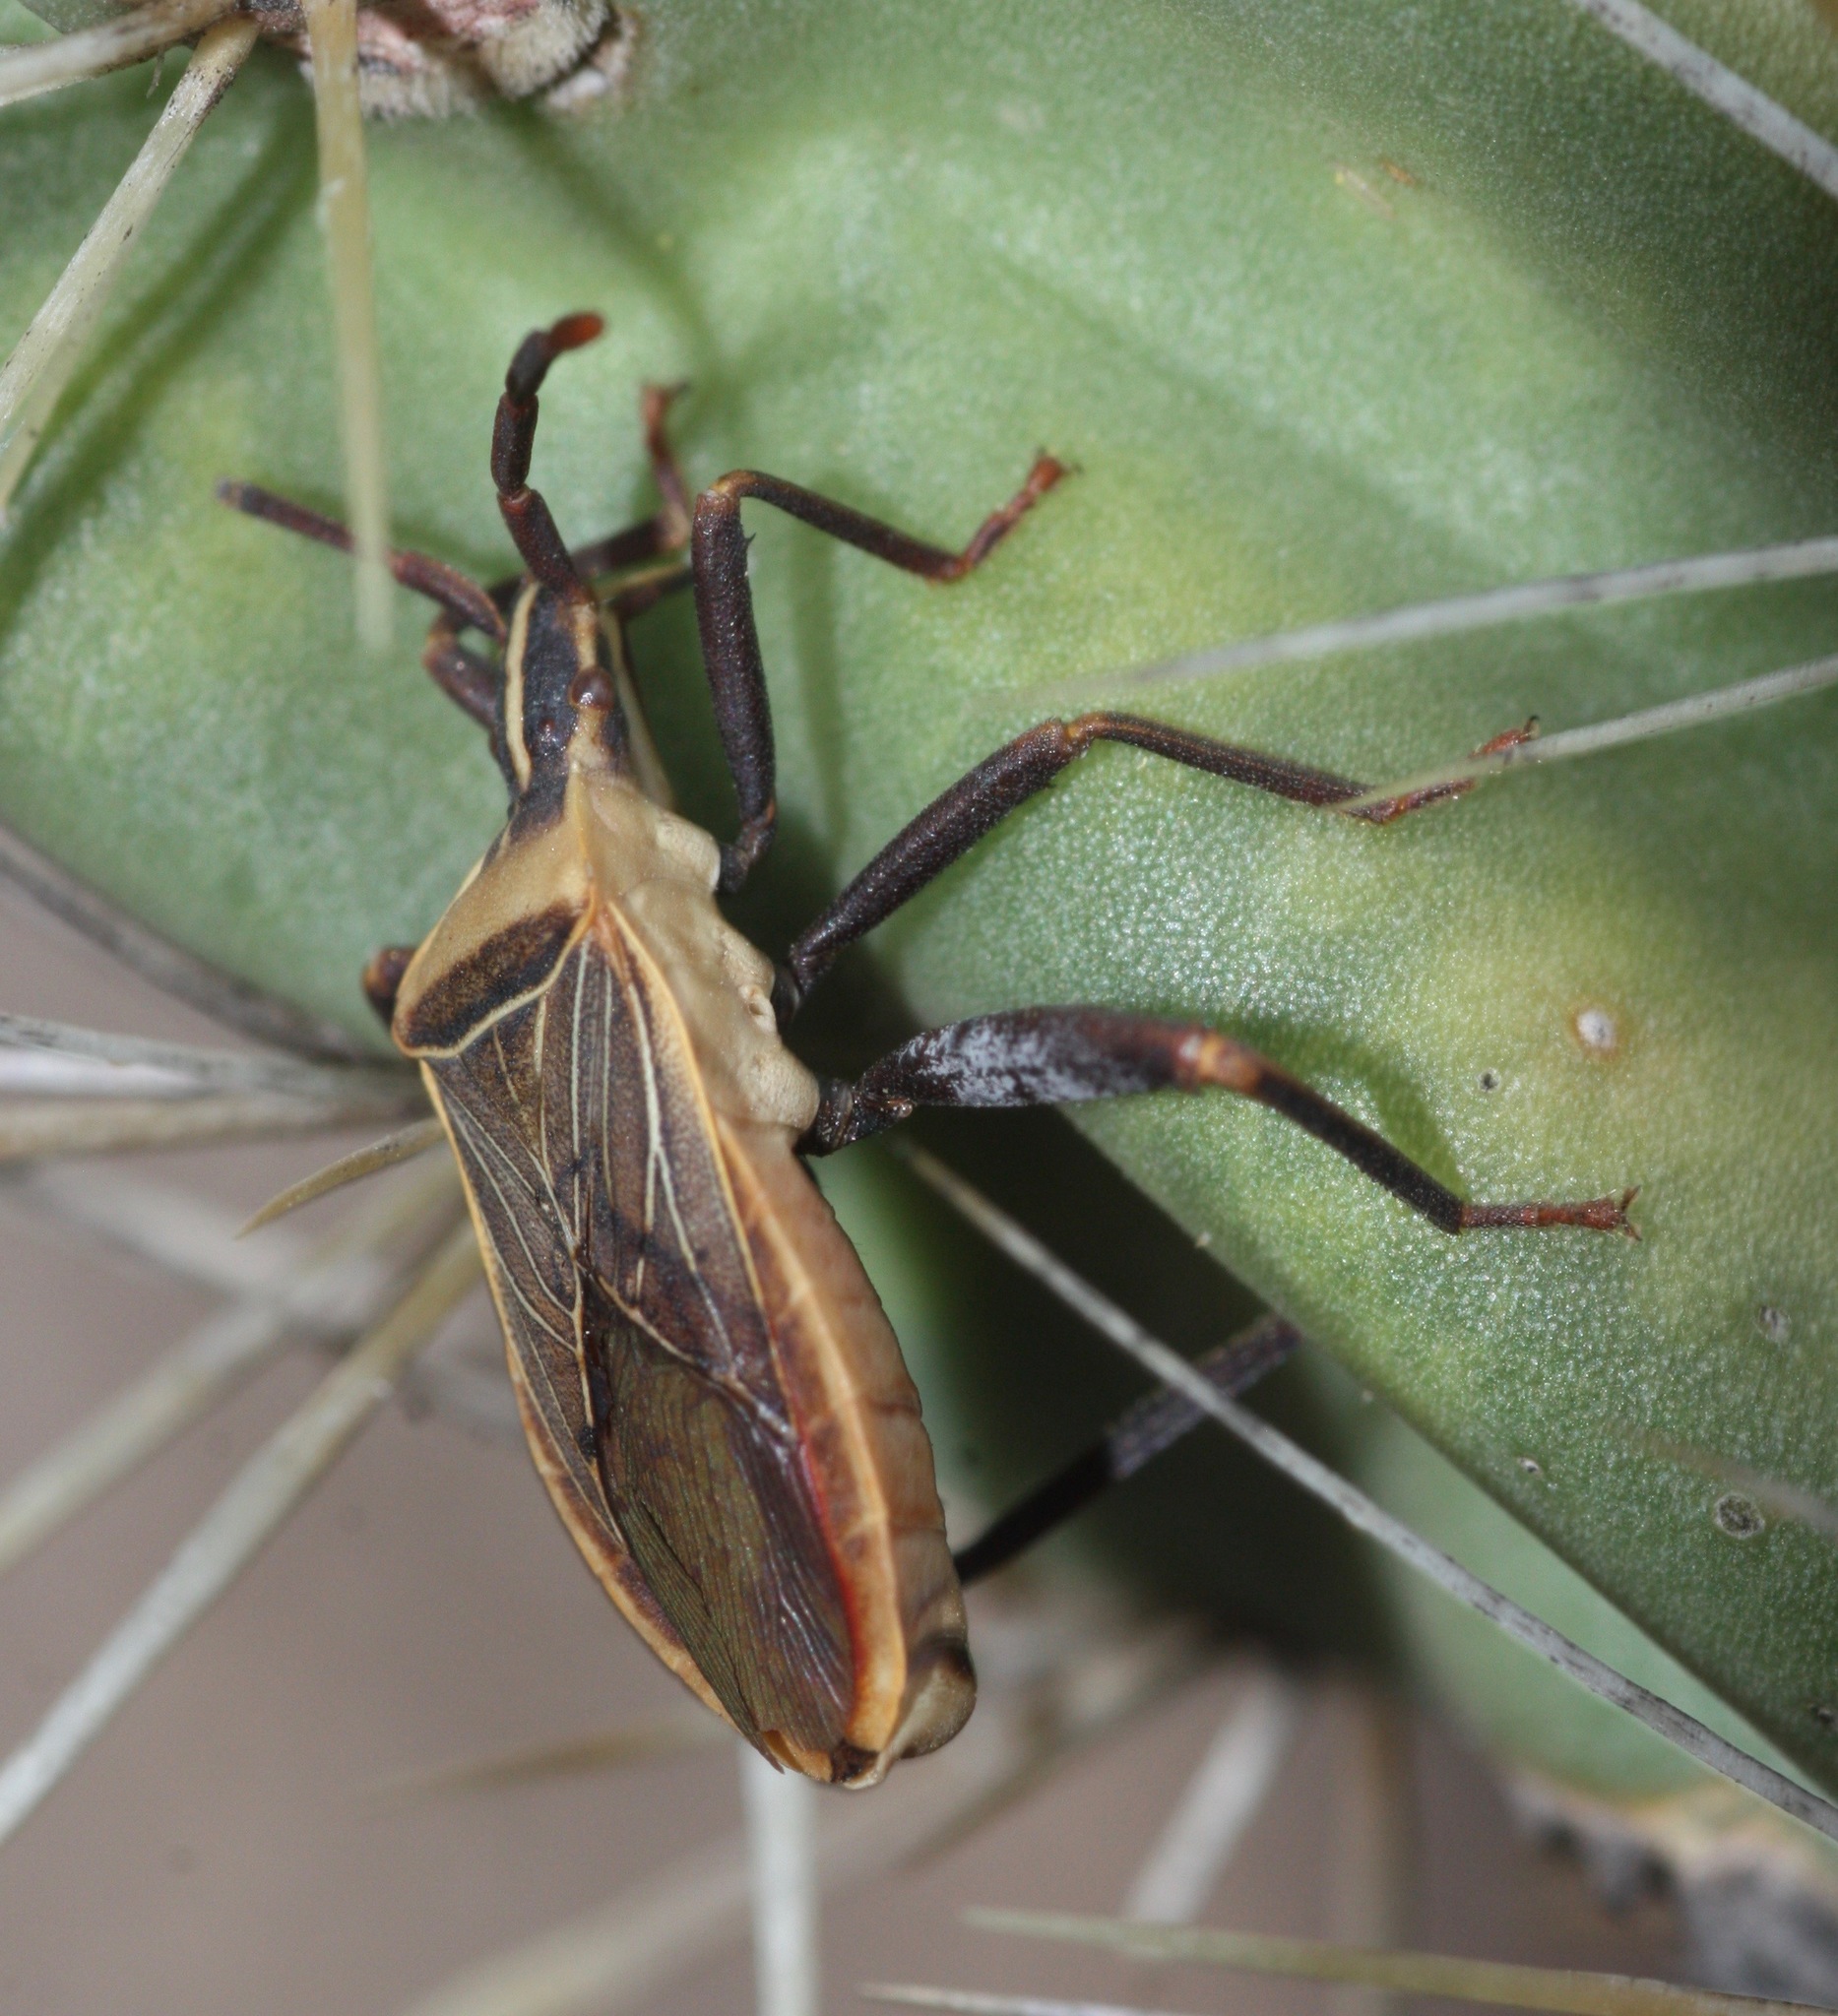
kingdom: Animalia
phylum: Arthropoda
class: Insecta
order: Hemiptera
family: Coreidae
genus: Chelinidea
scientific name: Chelinidea vittiger
